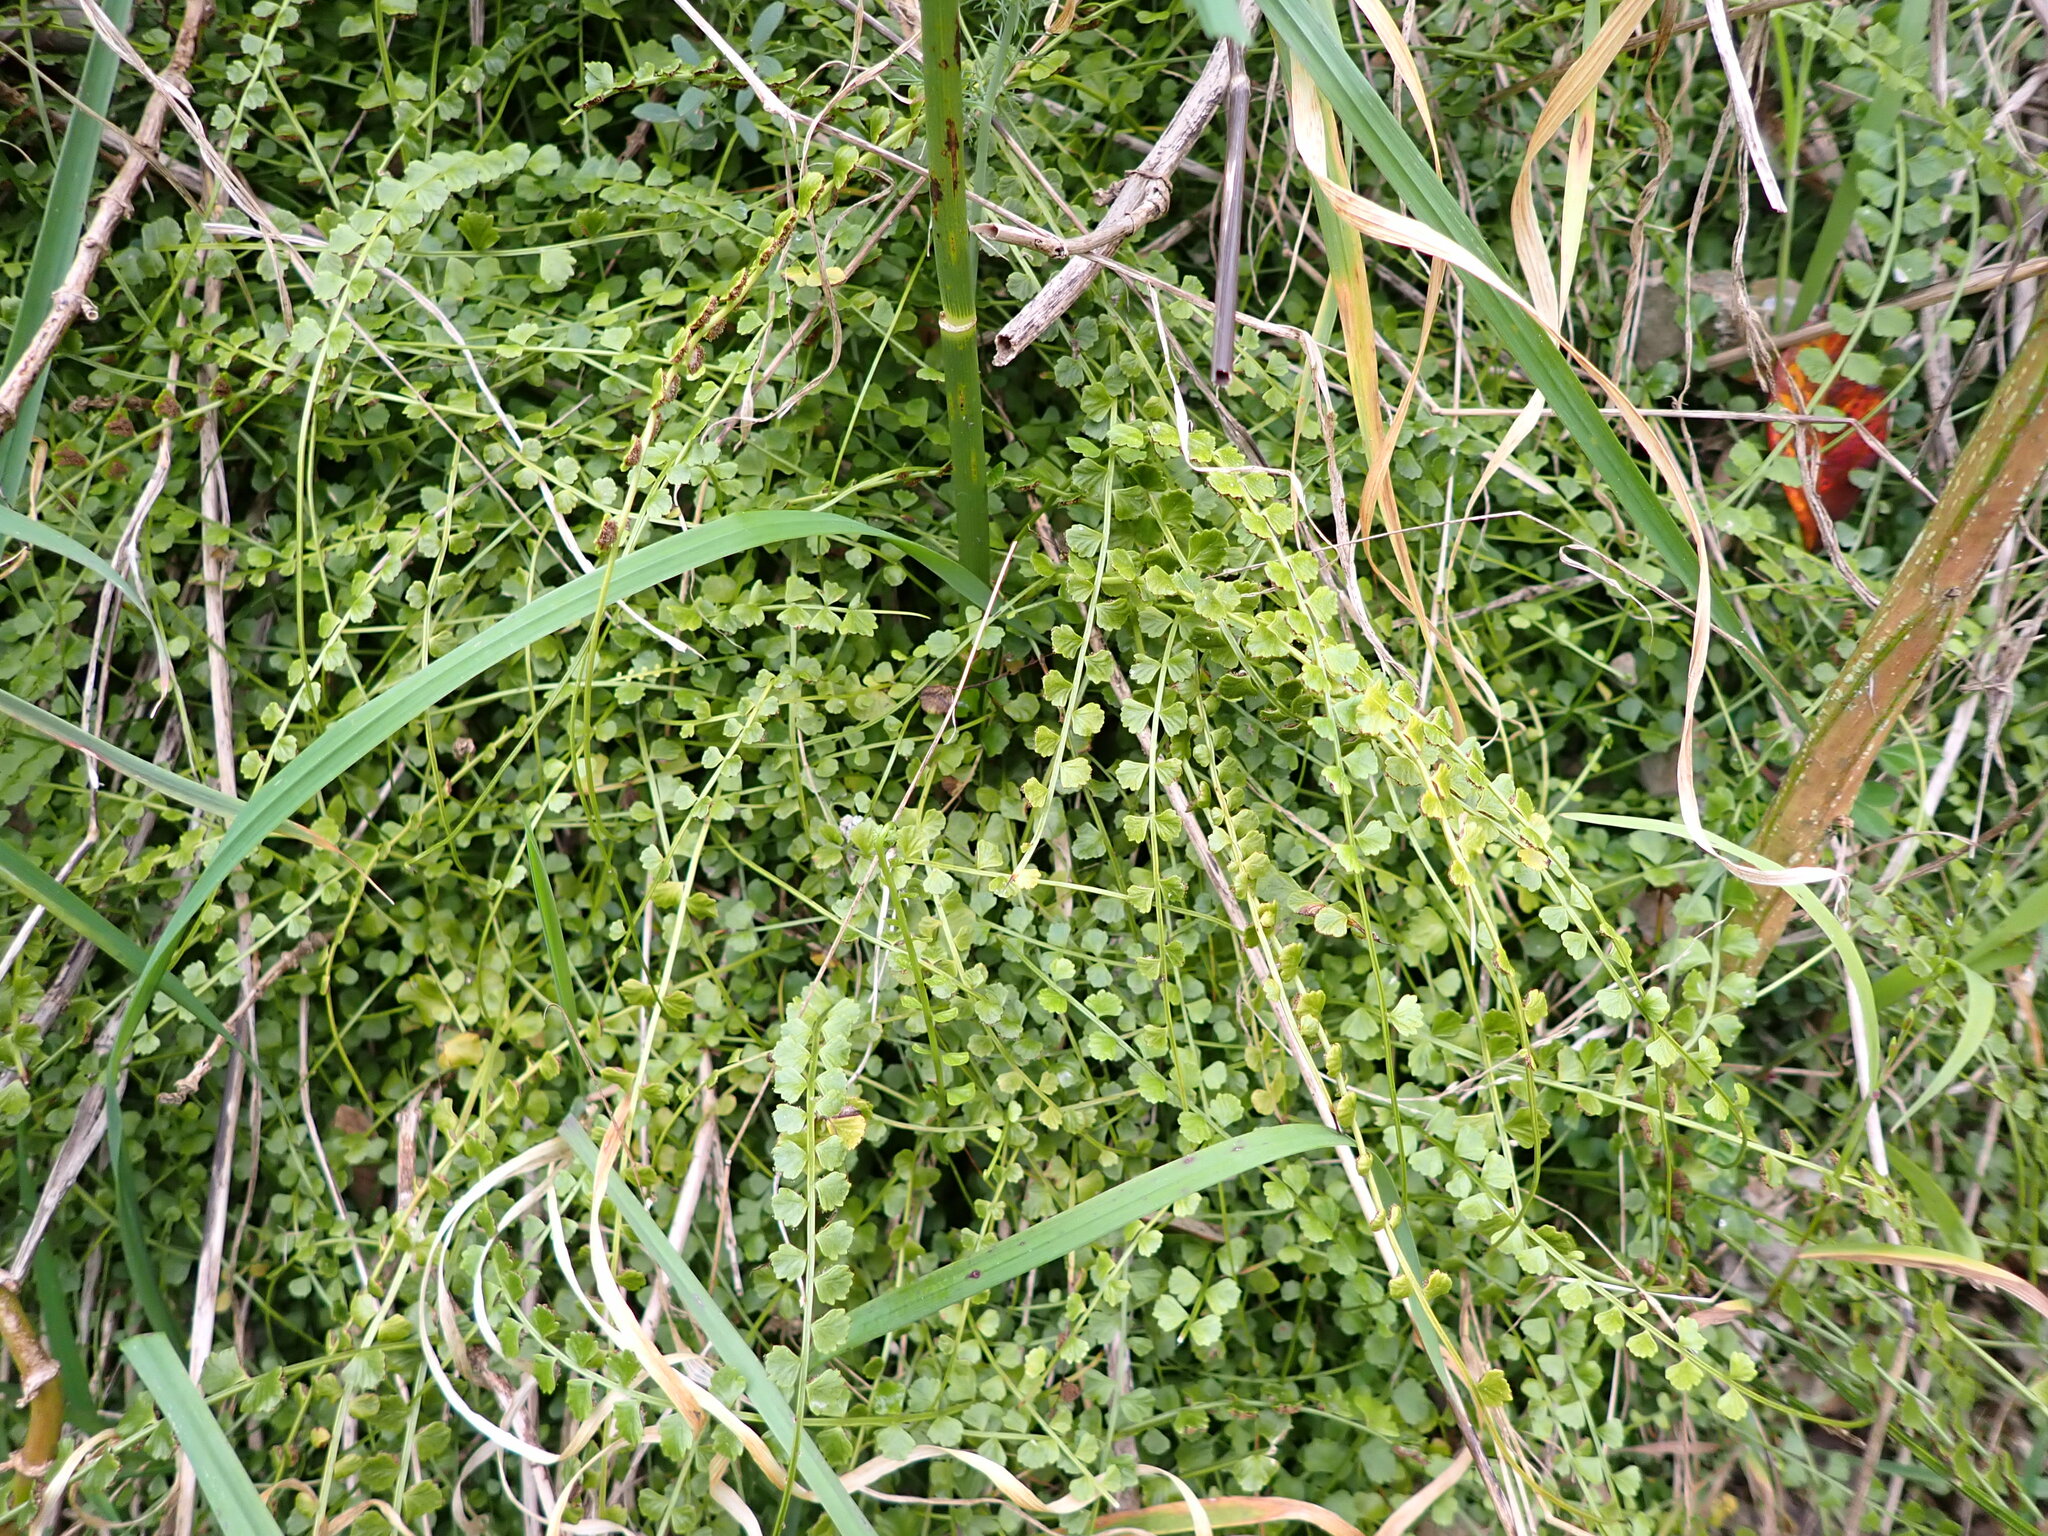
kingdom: Plantae
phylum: Tracheophyta
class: Polypodiopsida
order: Polypodiales
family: Aspleniaceae
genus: Asplenium
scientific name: Asplenium flabellifolium
